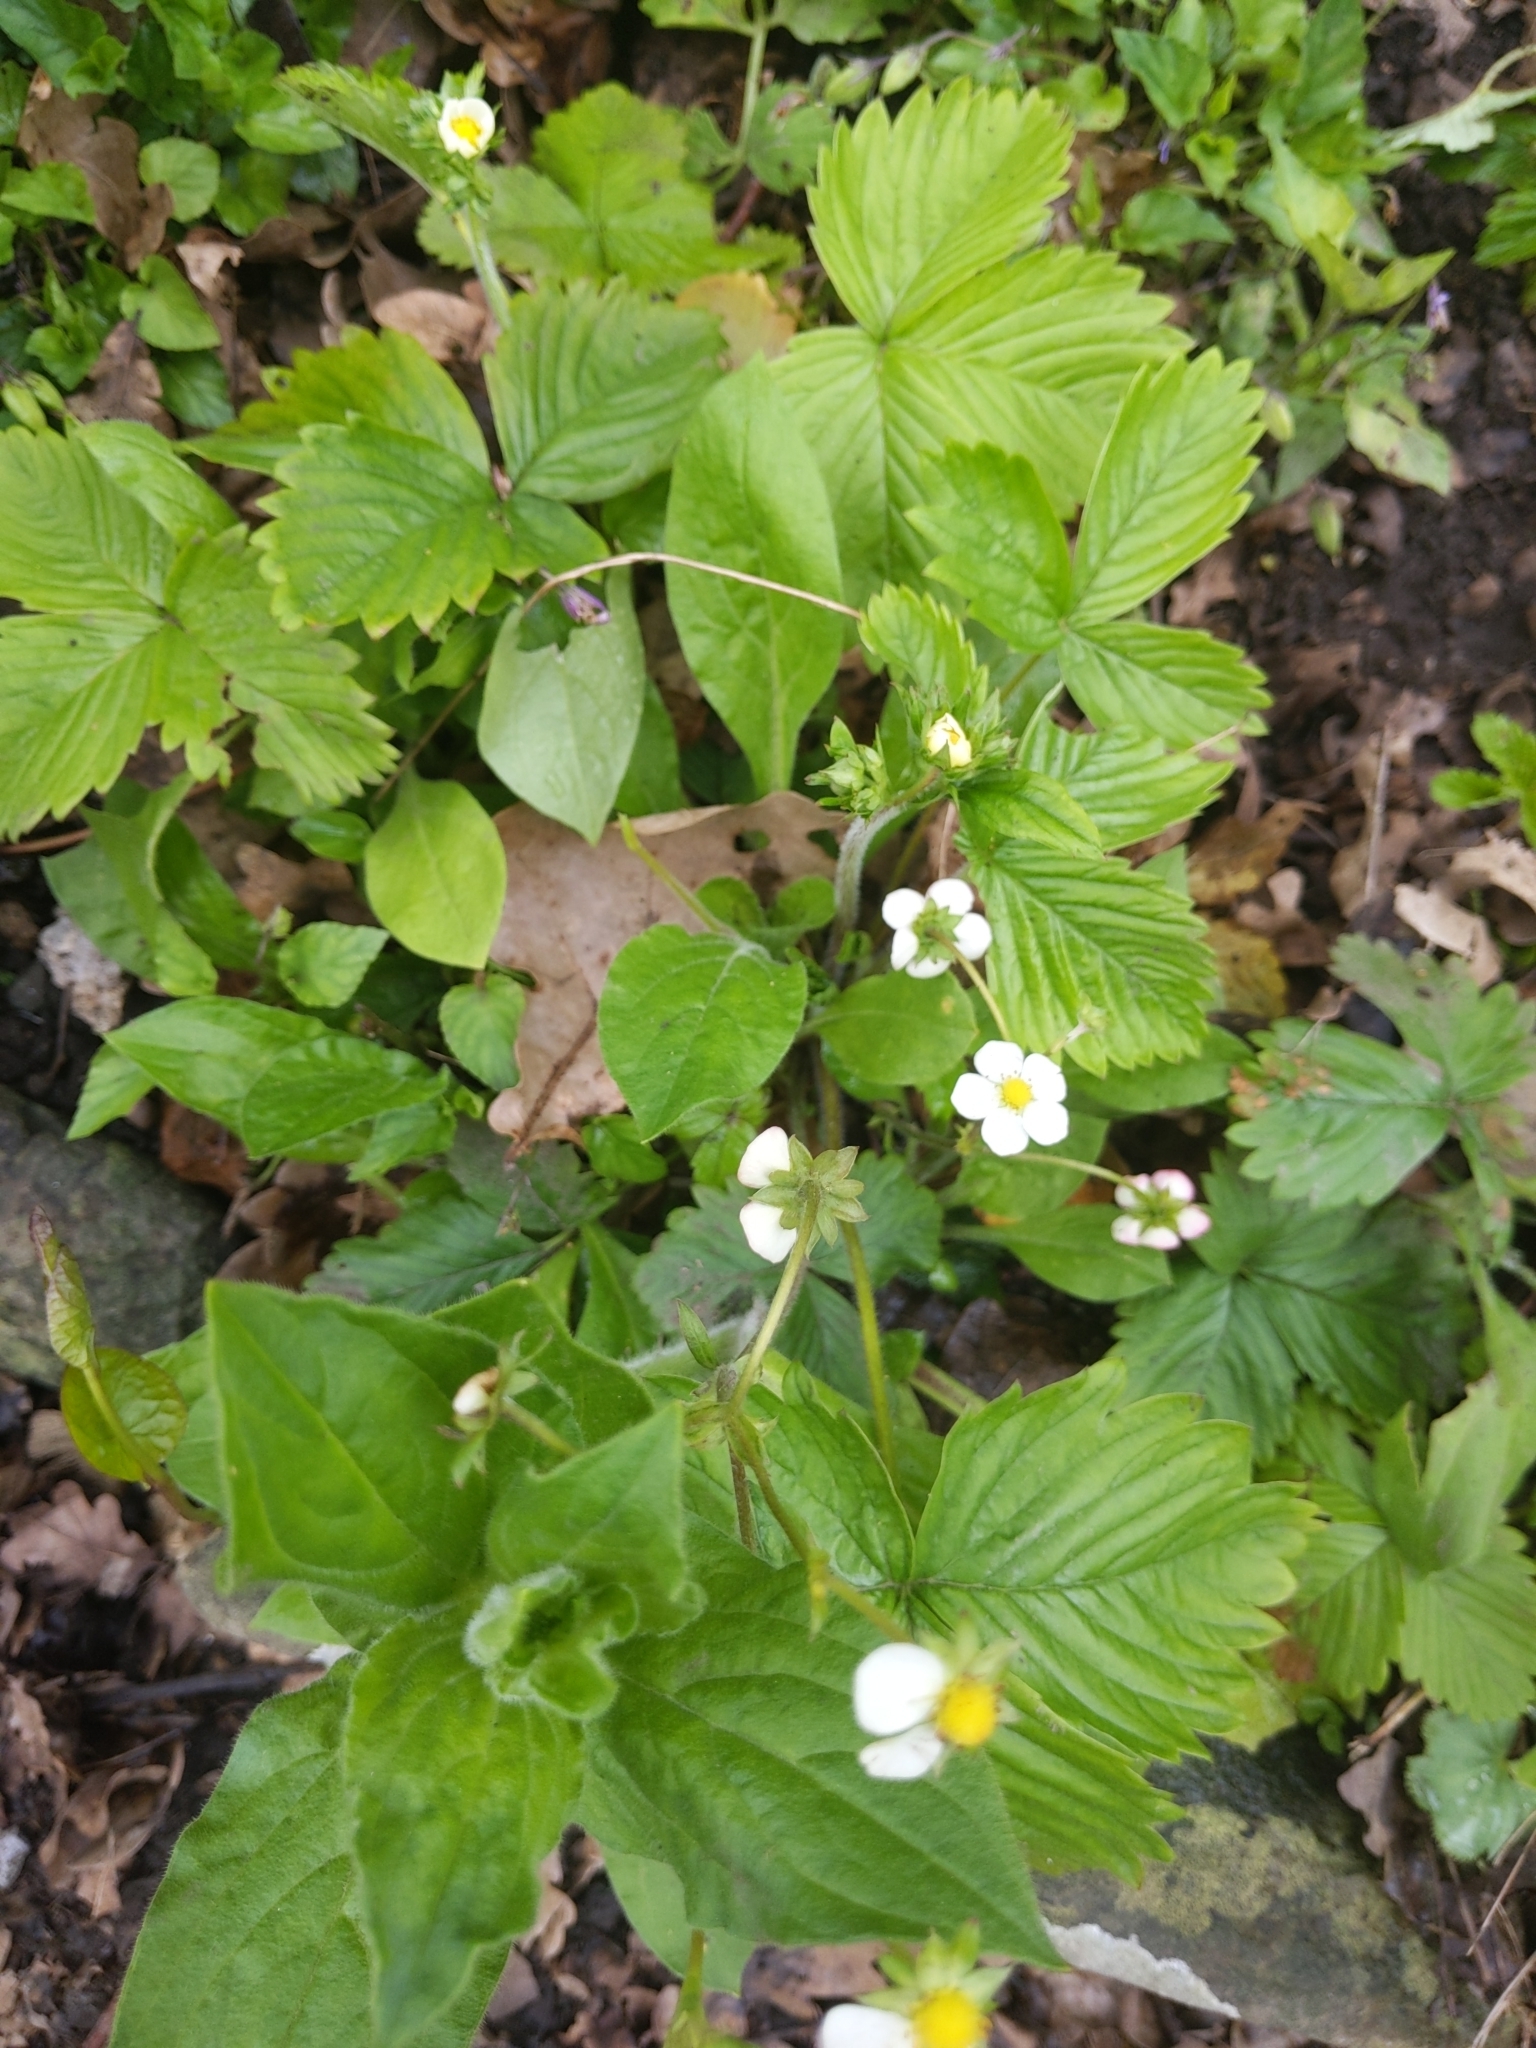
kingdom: Plantae
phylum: Tracheophyta
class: Magnoliopsida
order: Rosales
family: Rosaceae
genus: Fragaria
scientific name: Fragaria vesca
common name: Wild strawberry
